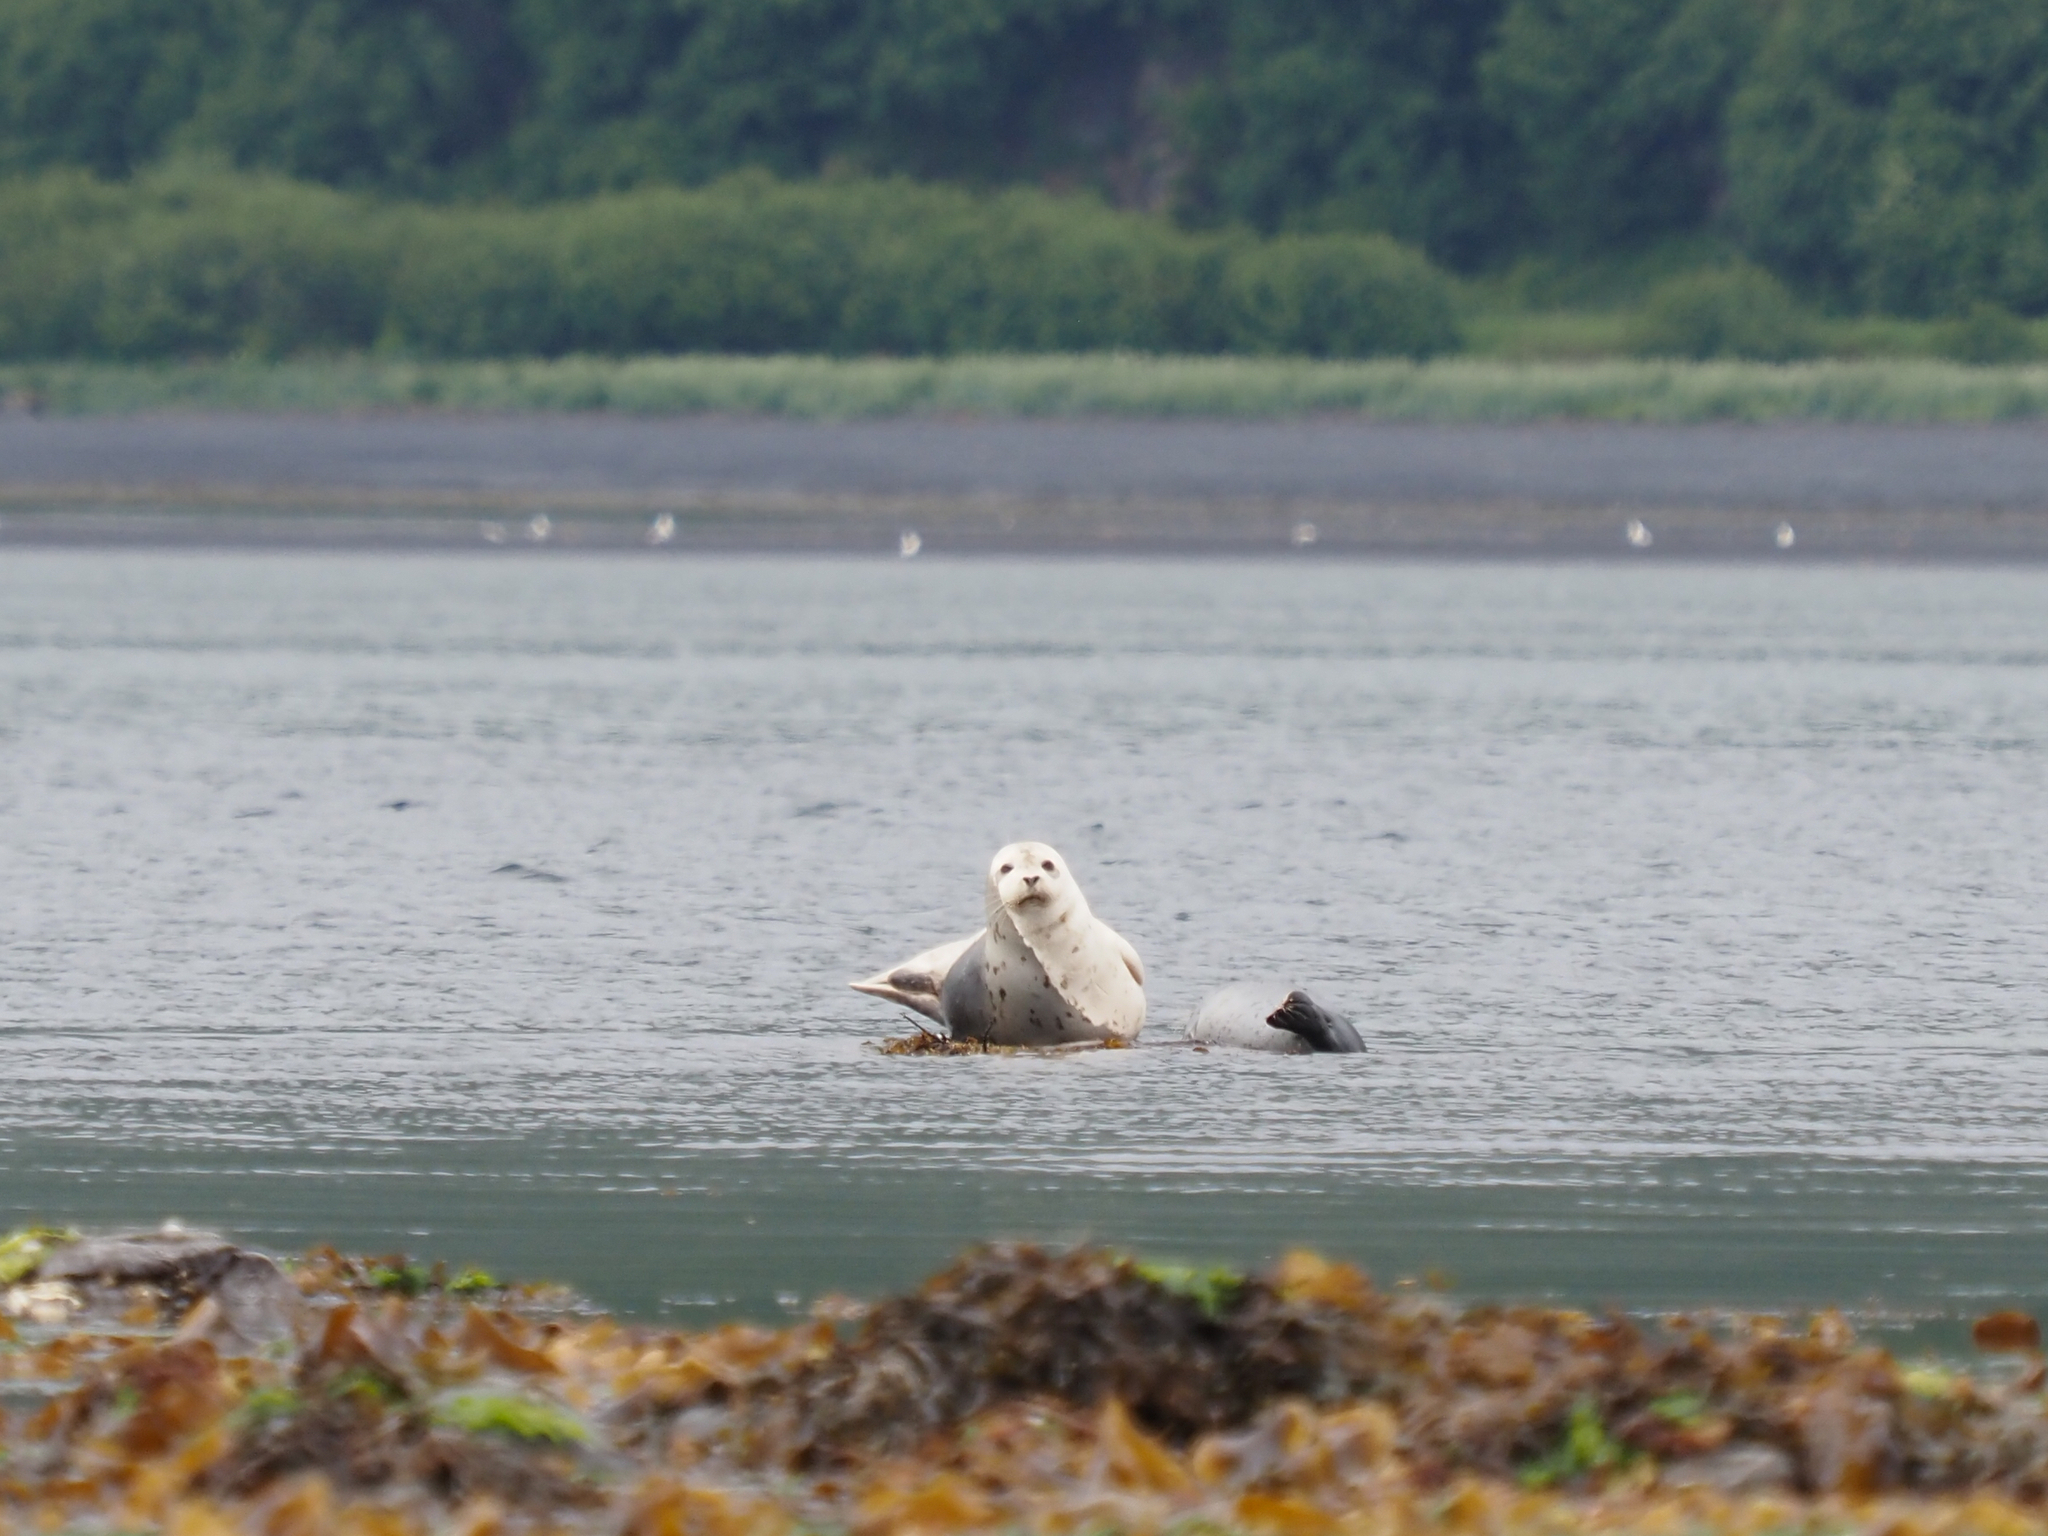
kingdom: Animalia
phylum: Chordata
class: Mammalia
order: Carnivora
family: Phocidae
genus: Phoca
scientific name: Phoca vitulina
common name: Harbor seal
